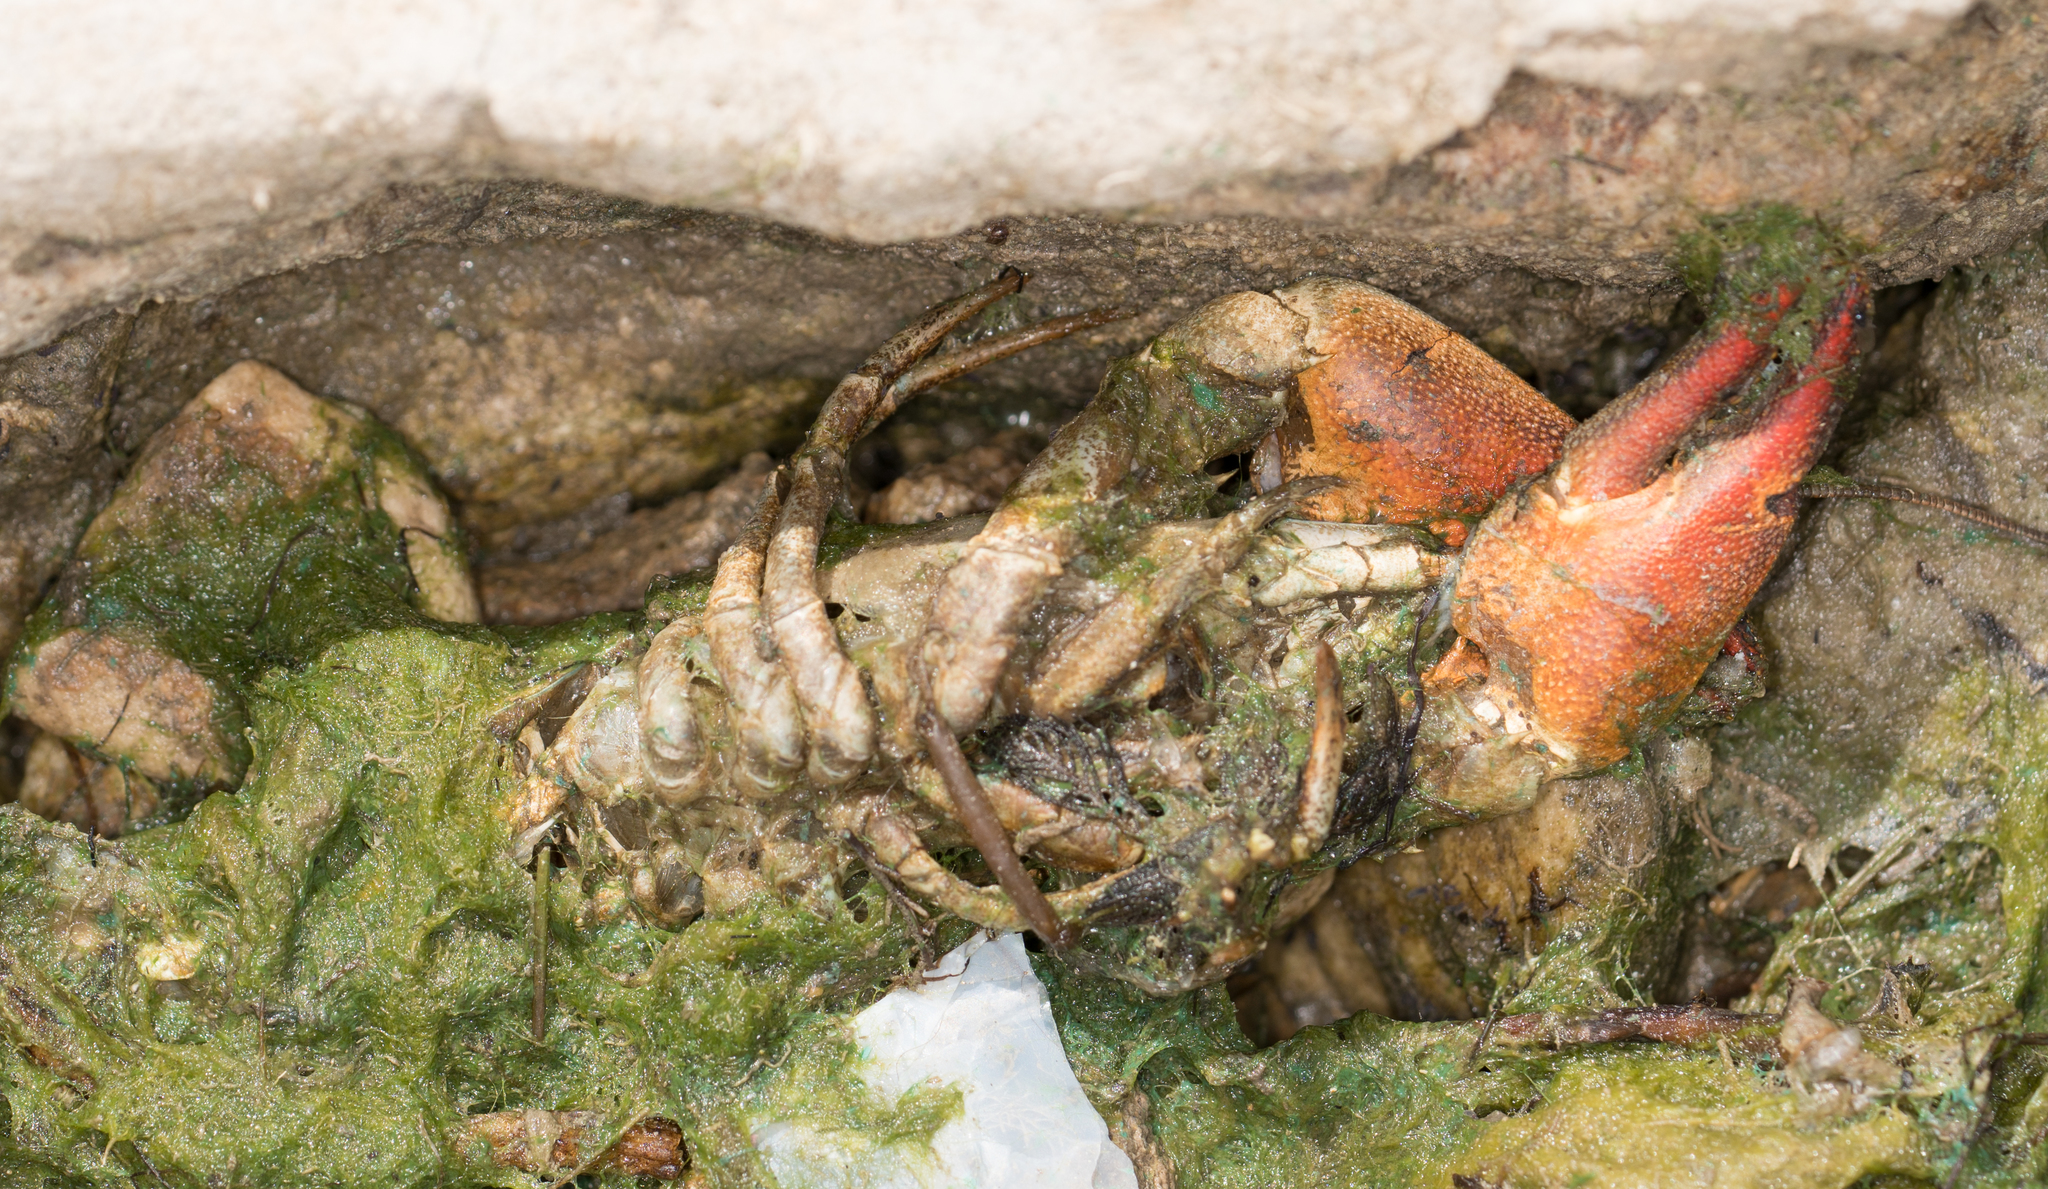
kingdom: Animalia
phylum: Arthropoda
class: Malacostraca
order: Decapoda
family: Astacidae
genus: Pacifastacus
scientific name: Pacifastacus leniusculus
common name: Signal crayfish
